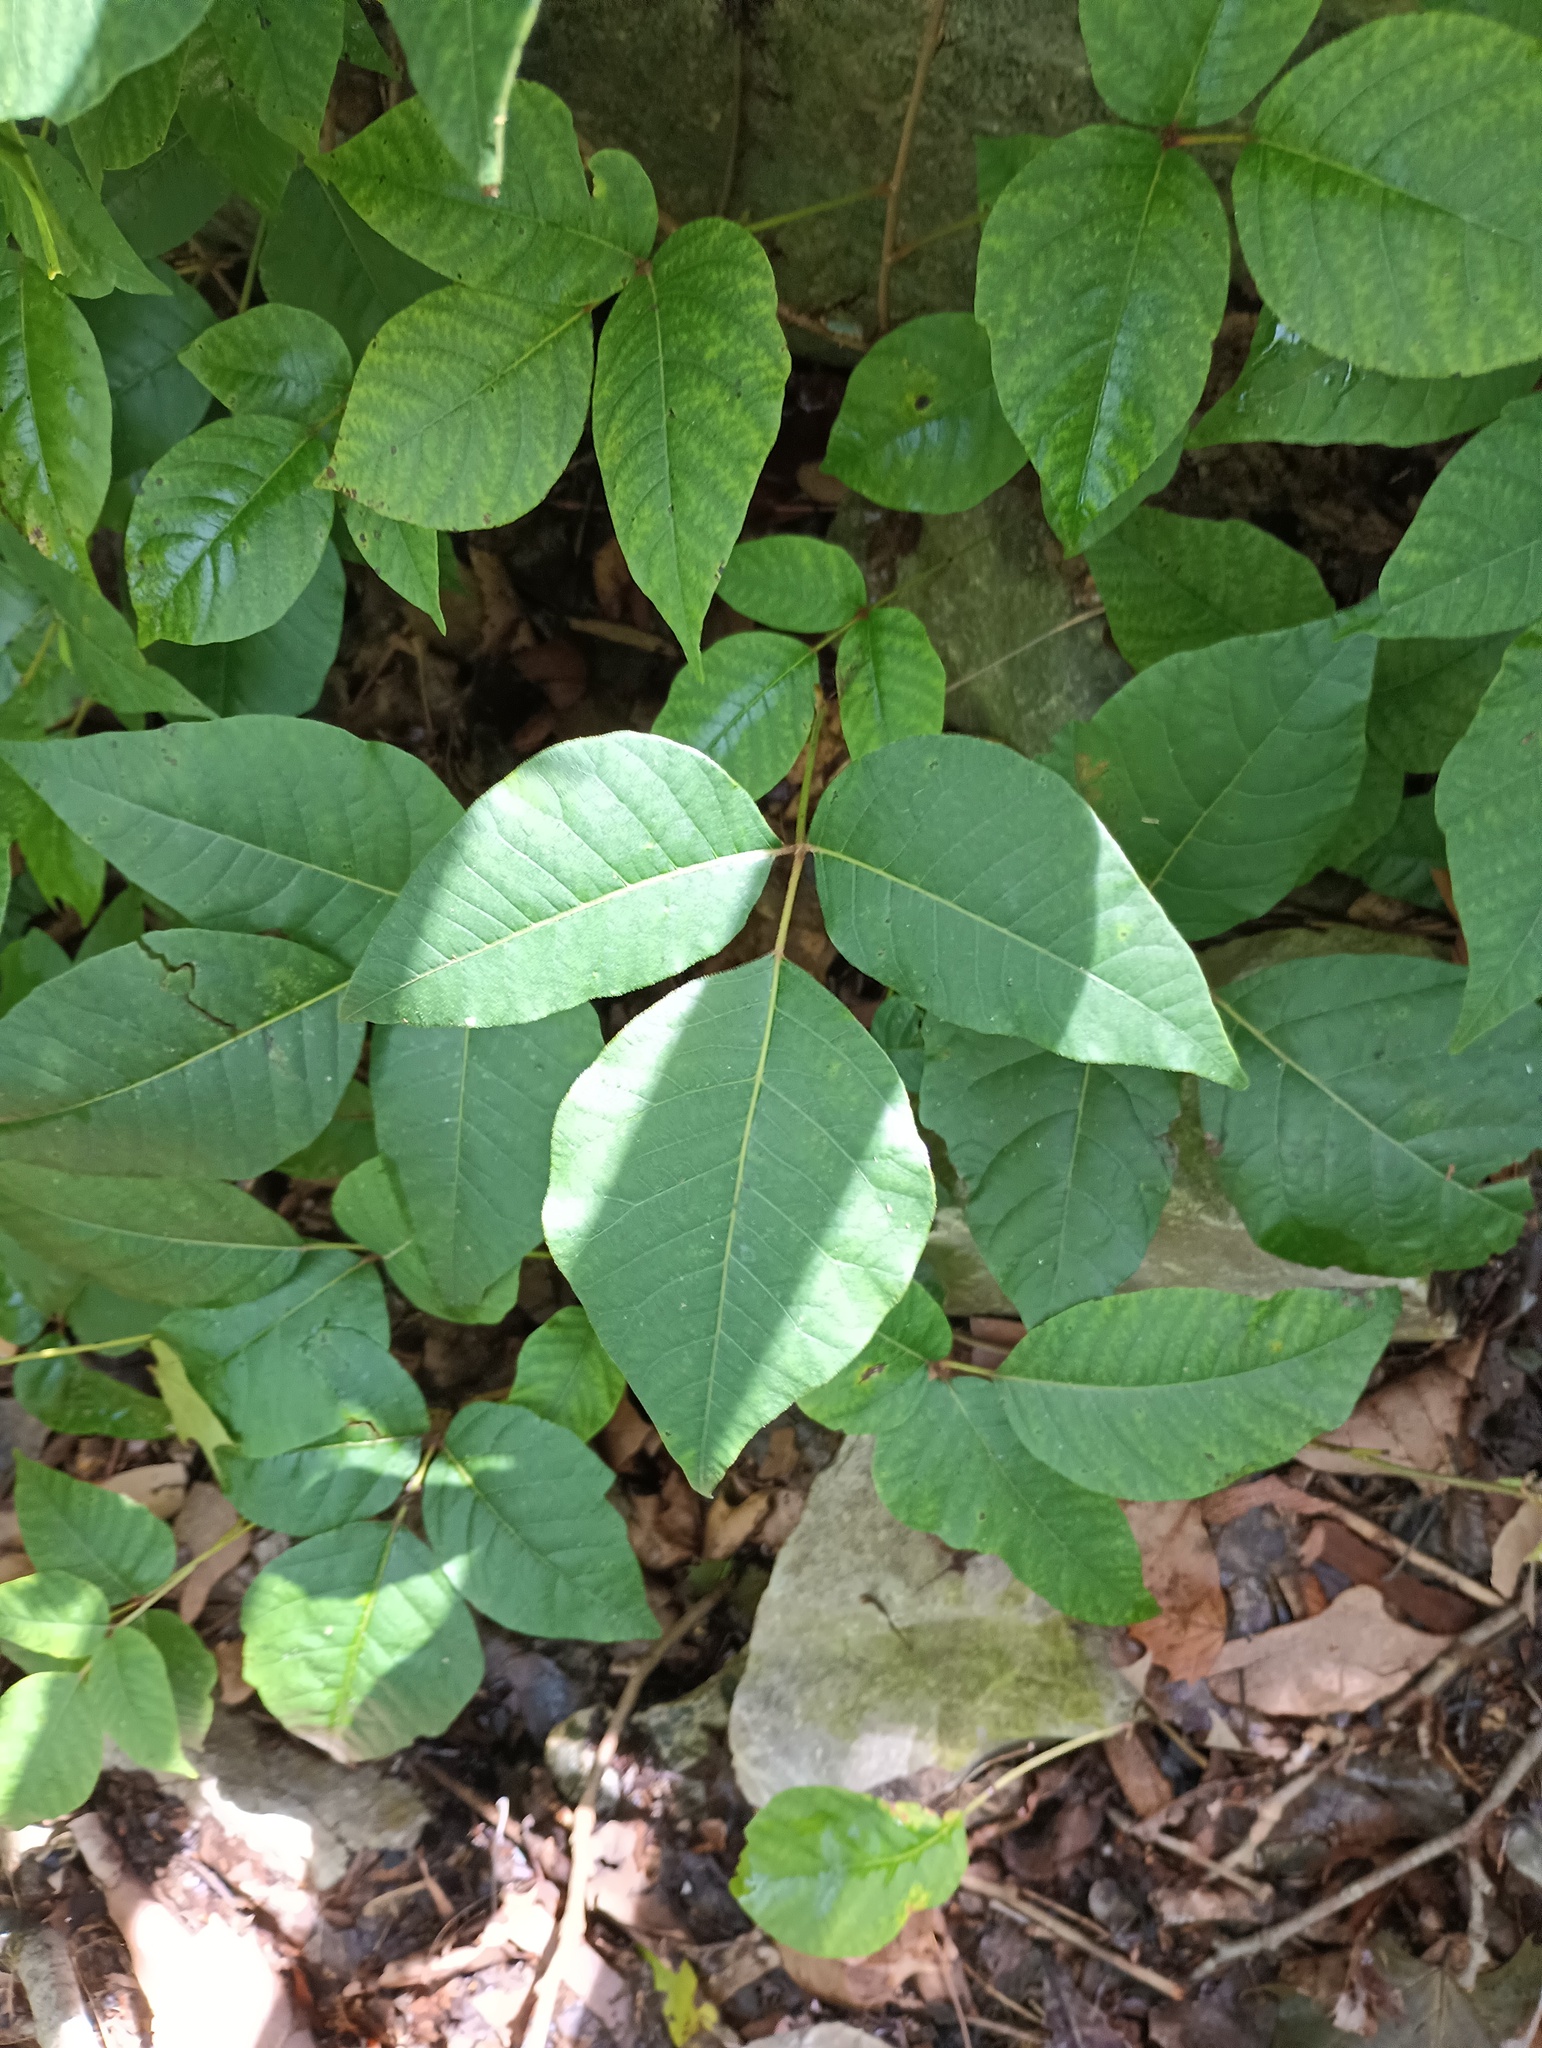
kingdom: Plantae
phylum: Tracheophyta
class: Magnoliopsida
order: Sapindales
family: Anacardiaceae
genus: Toxicodendron
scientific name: Toxicodendron radicans
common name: Poison ivy
